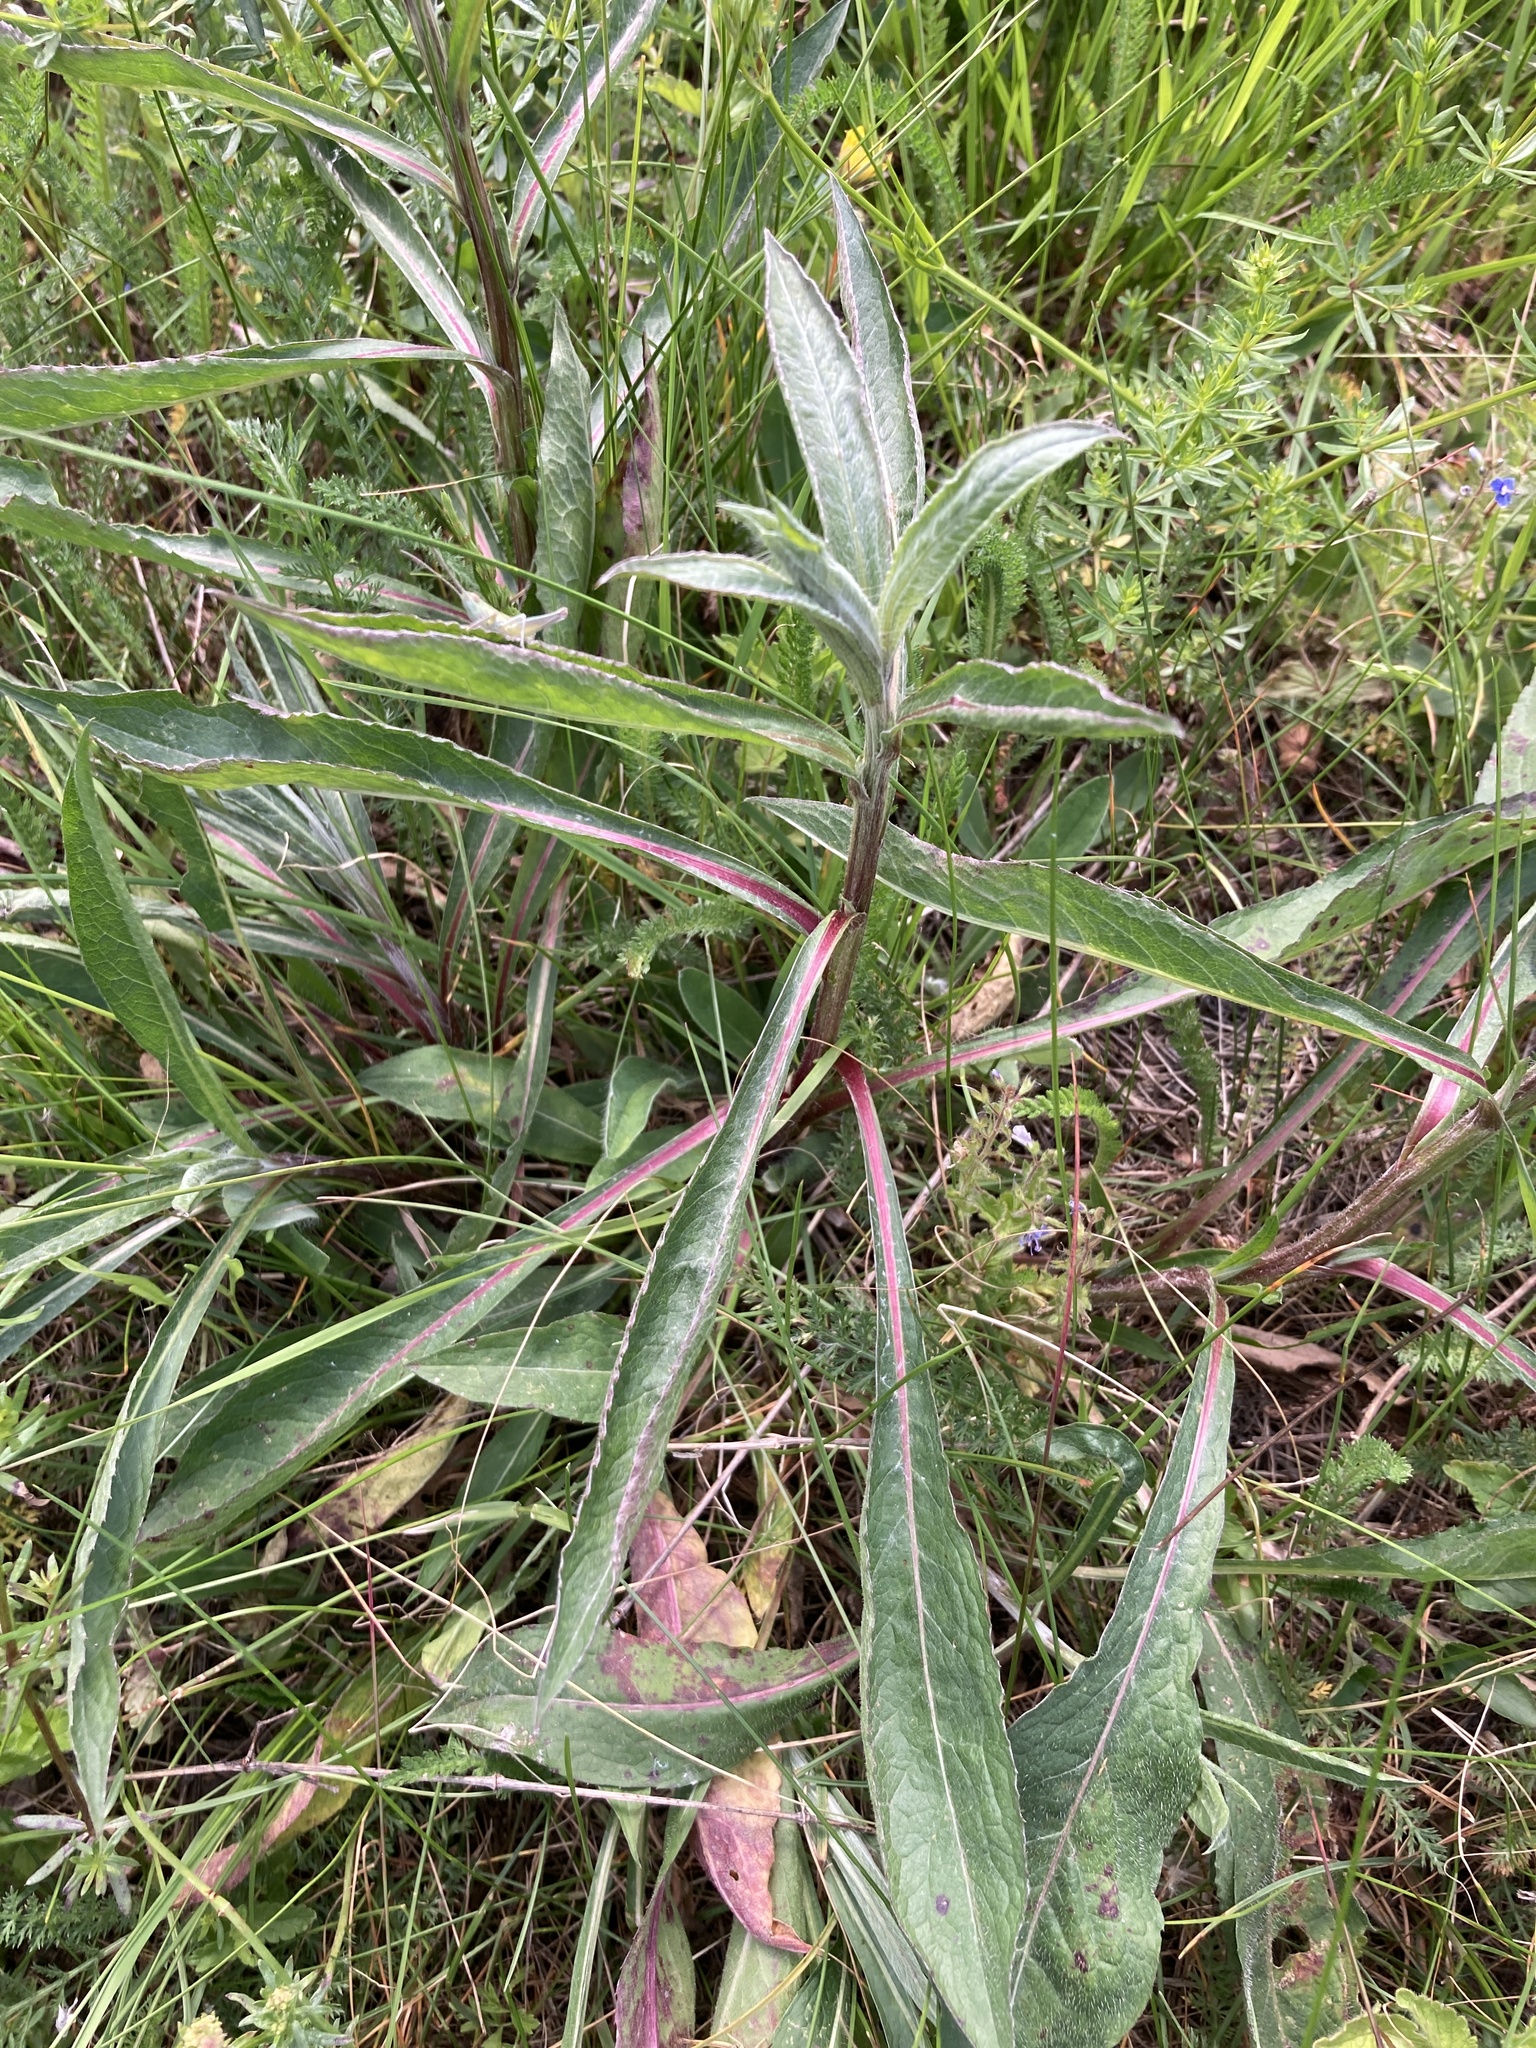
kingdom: Plantae
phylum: Tracheophyta
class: Magnoliopsida
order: Asterales
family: Asteraceae
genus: Centaurea
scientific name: Centaurea jacea
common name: Brown knapweed
